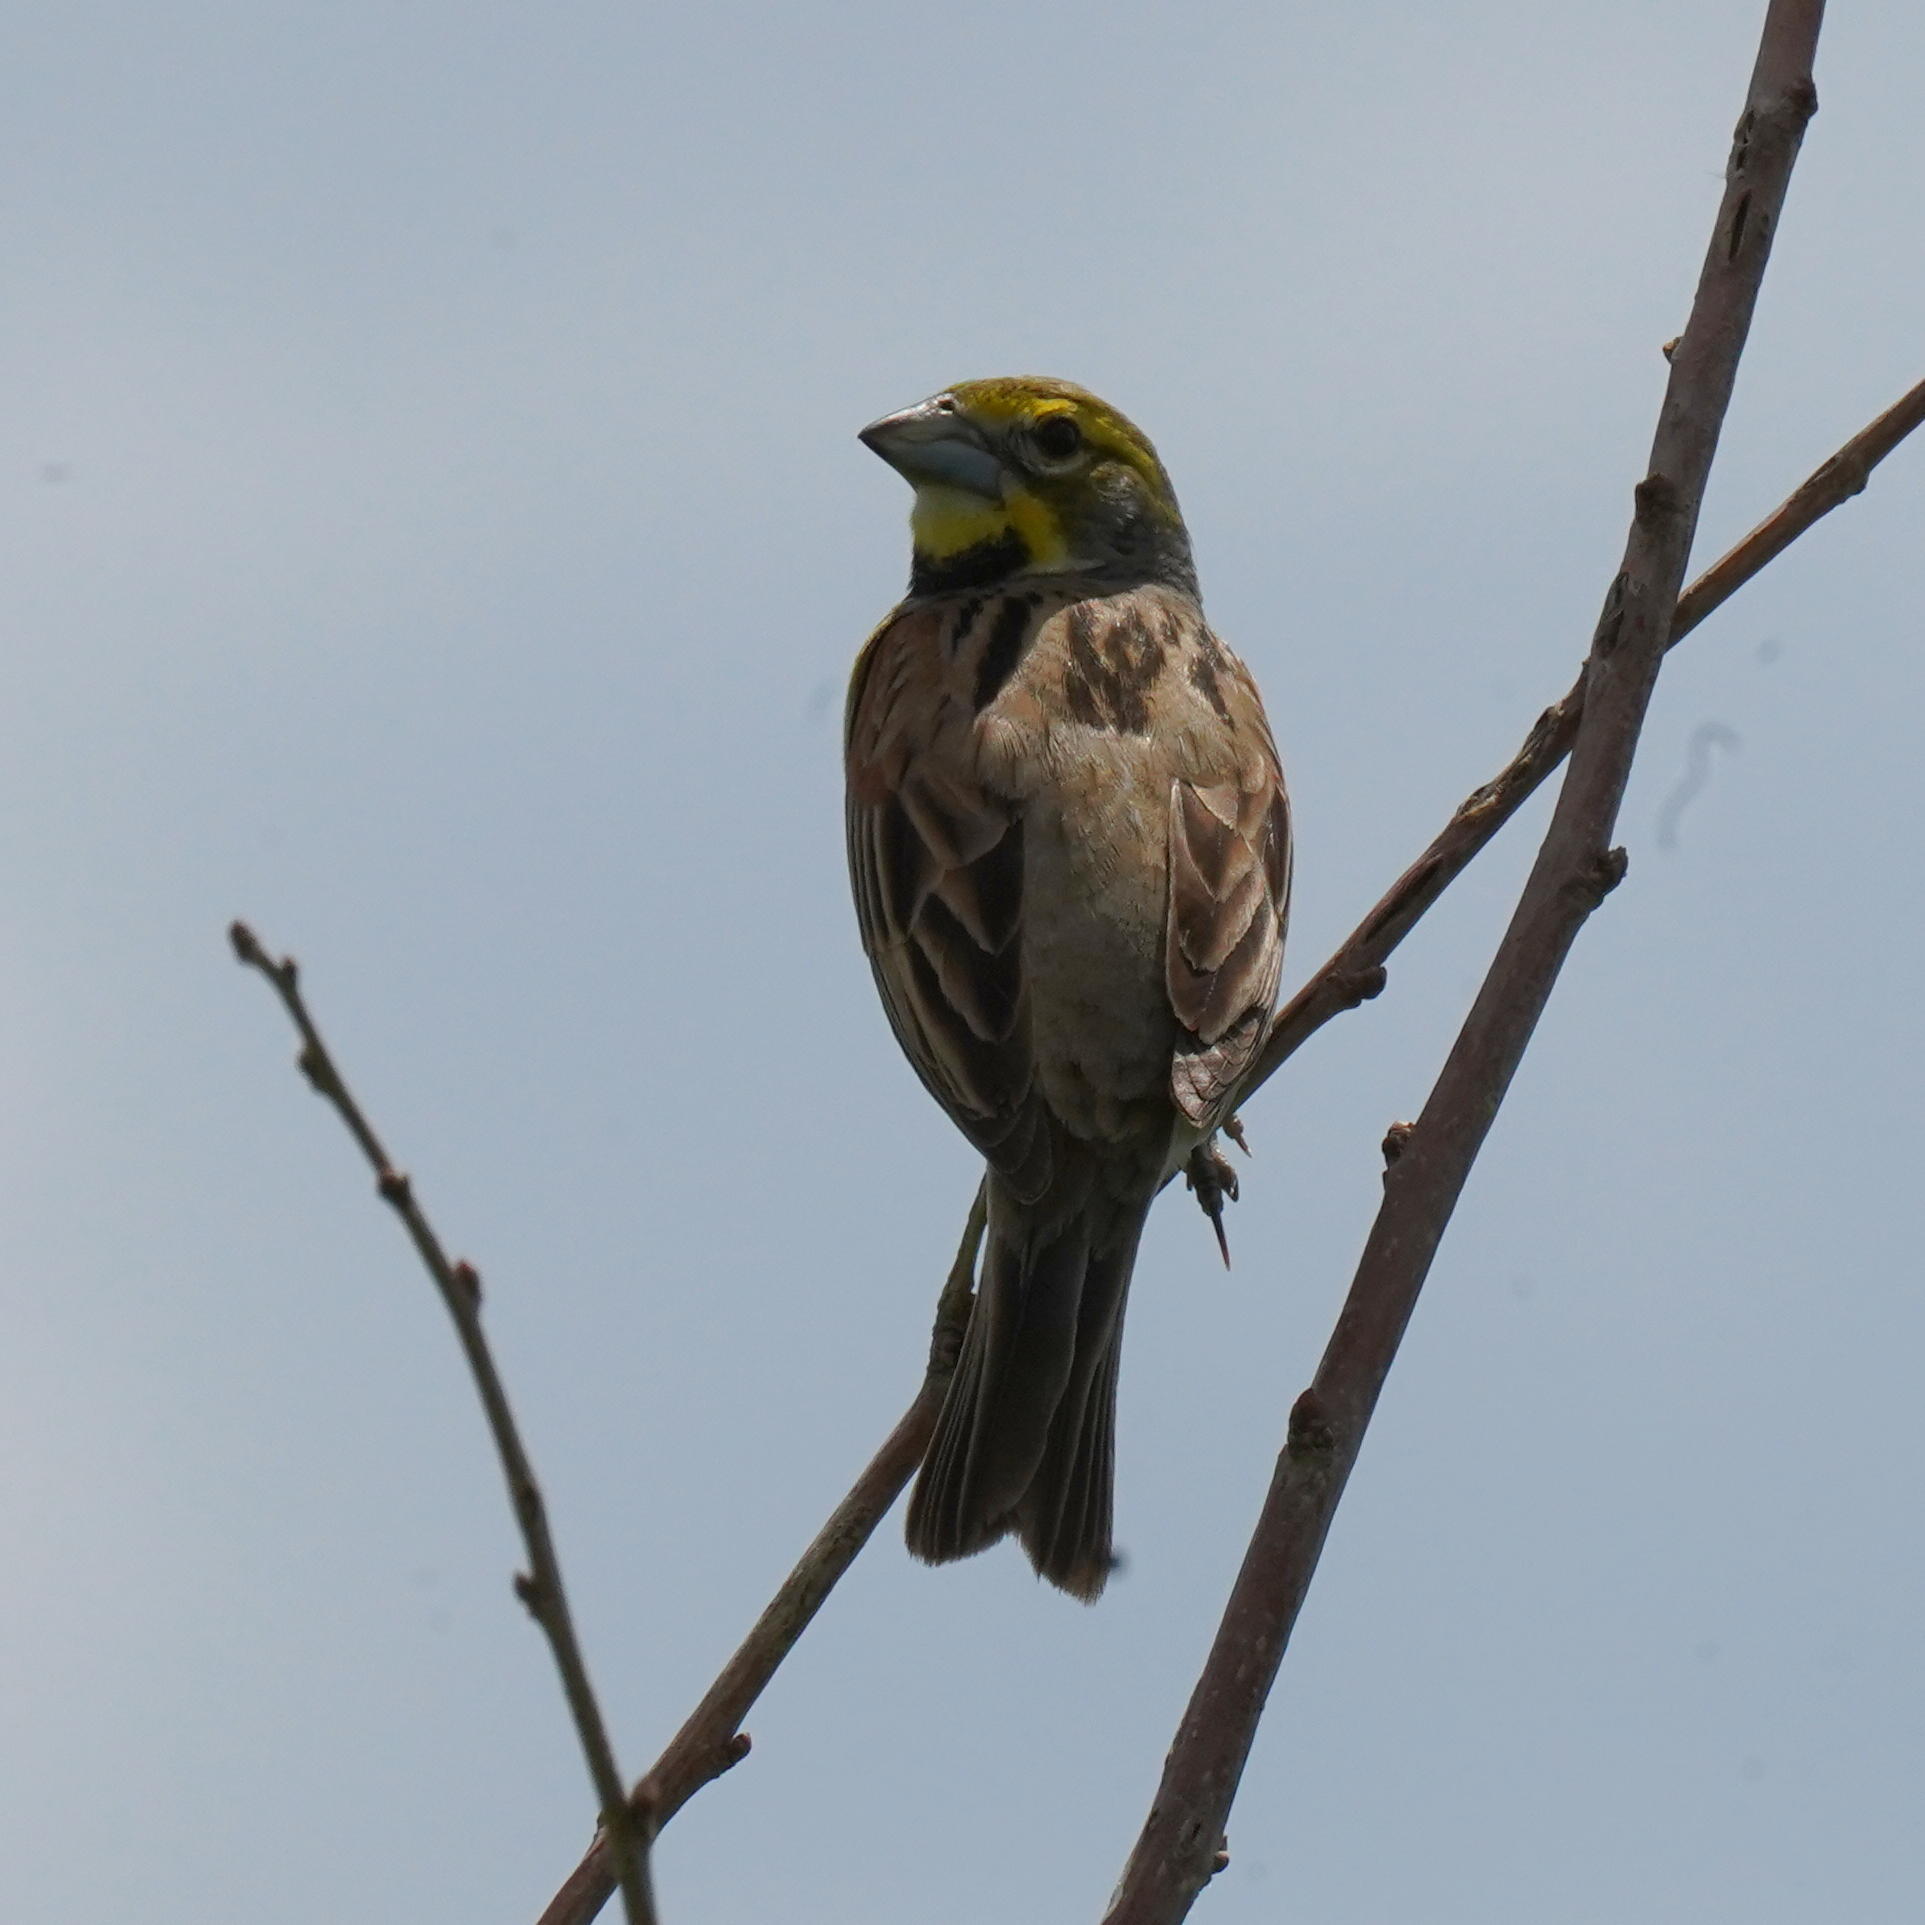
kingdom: Animalia
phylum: Chordata
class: Aves
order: Passeriformes
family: Cardinalidae
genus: Spiza
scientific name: Spiza americana
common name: Dickcissel
